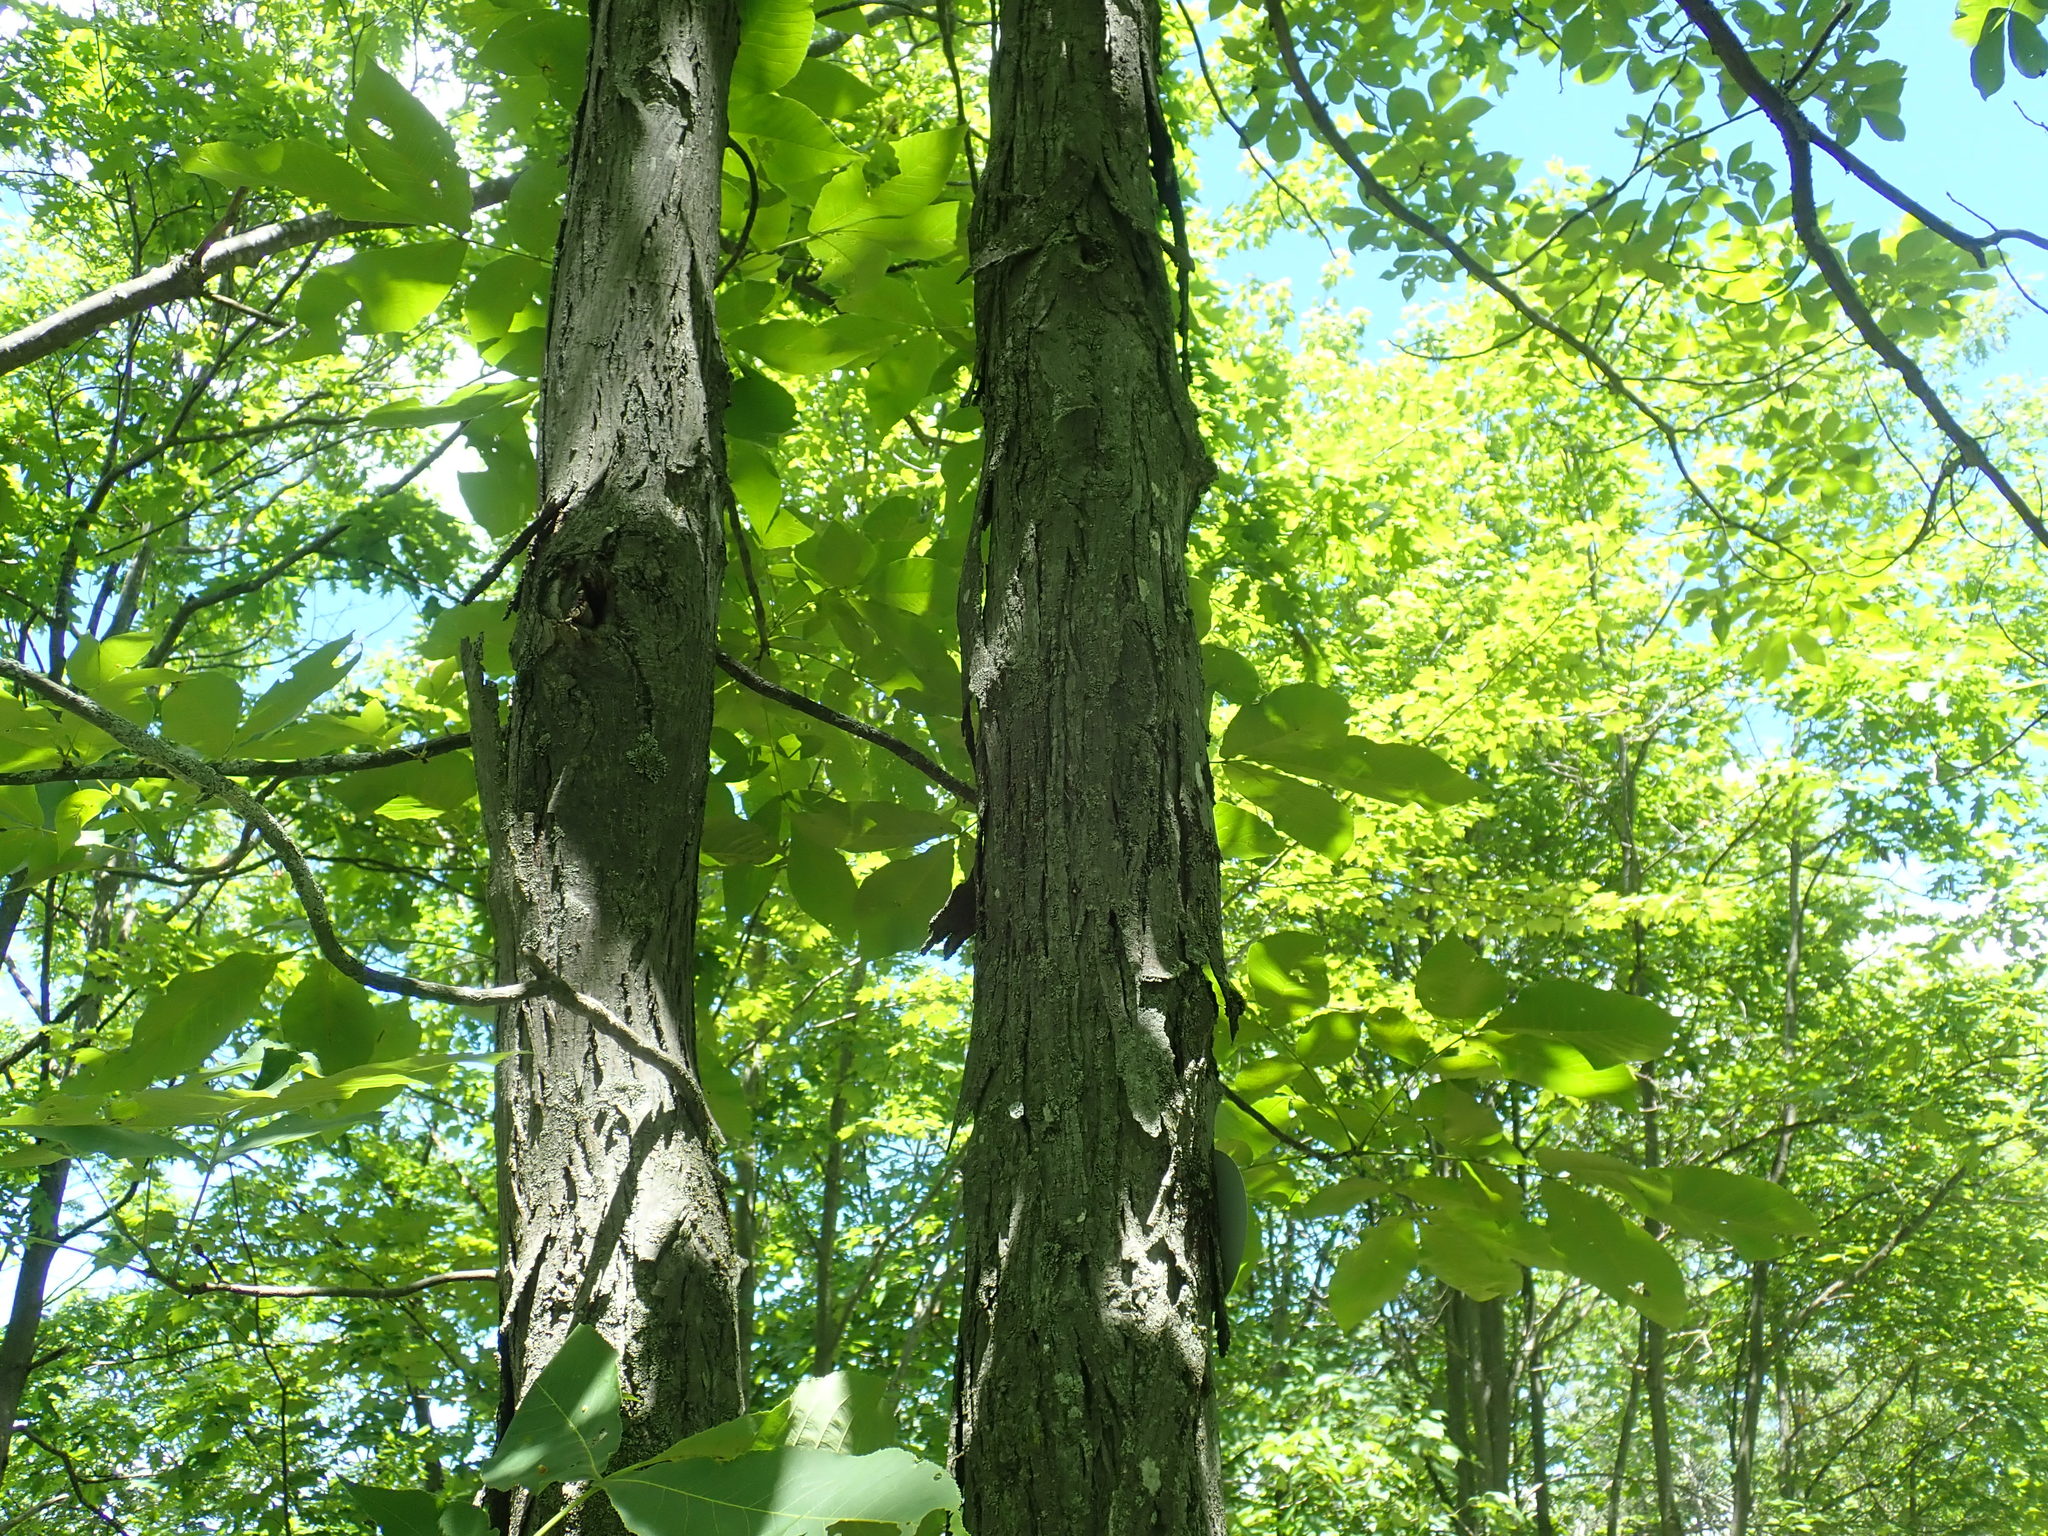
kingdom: Plantae
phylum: Tracheophyta
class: Magnoliopsida
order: Fagales
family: Juglandaceae
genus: Carya
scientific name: Carya ovata
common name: Shagbark hickory
